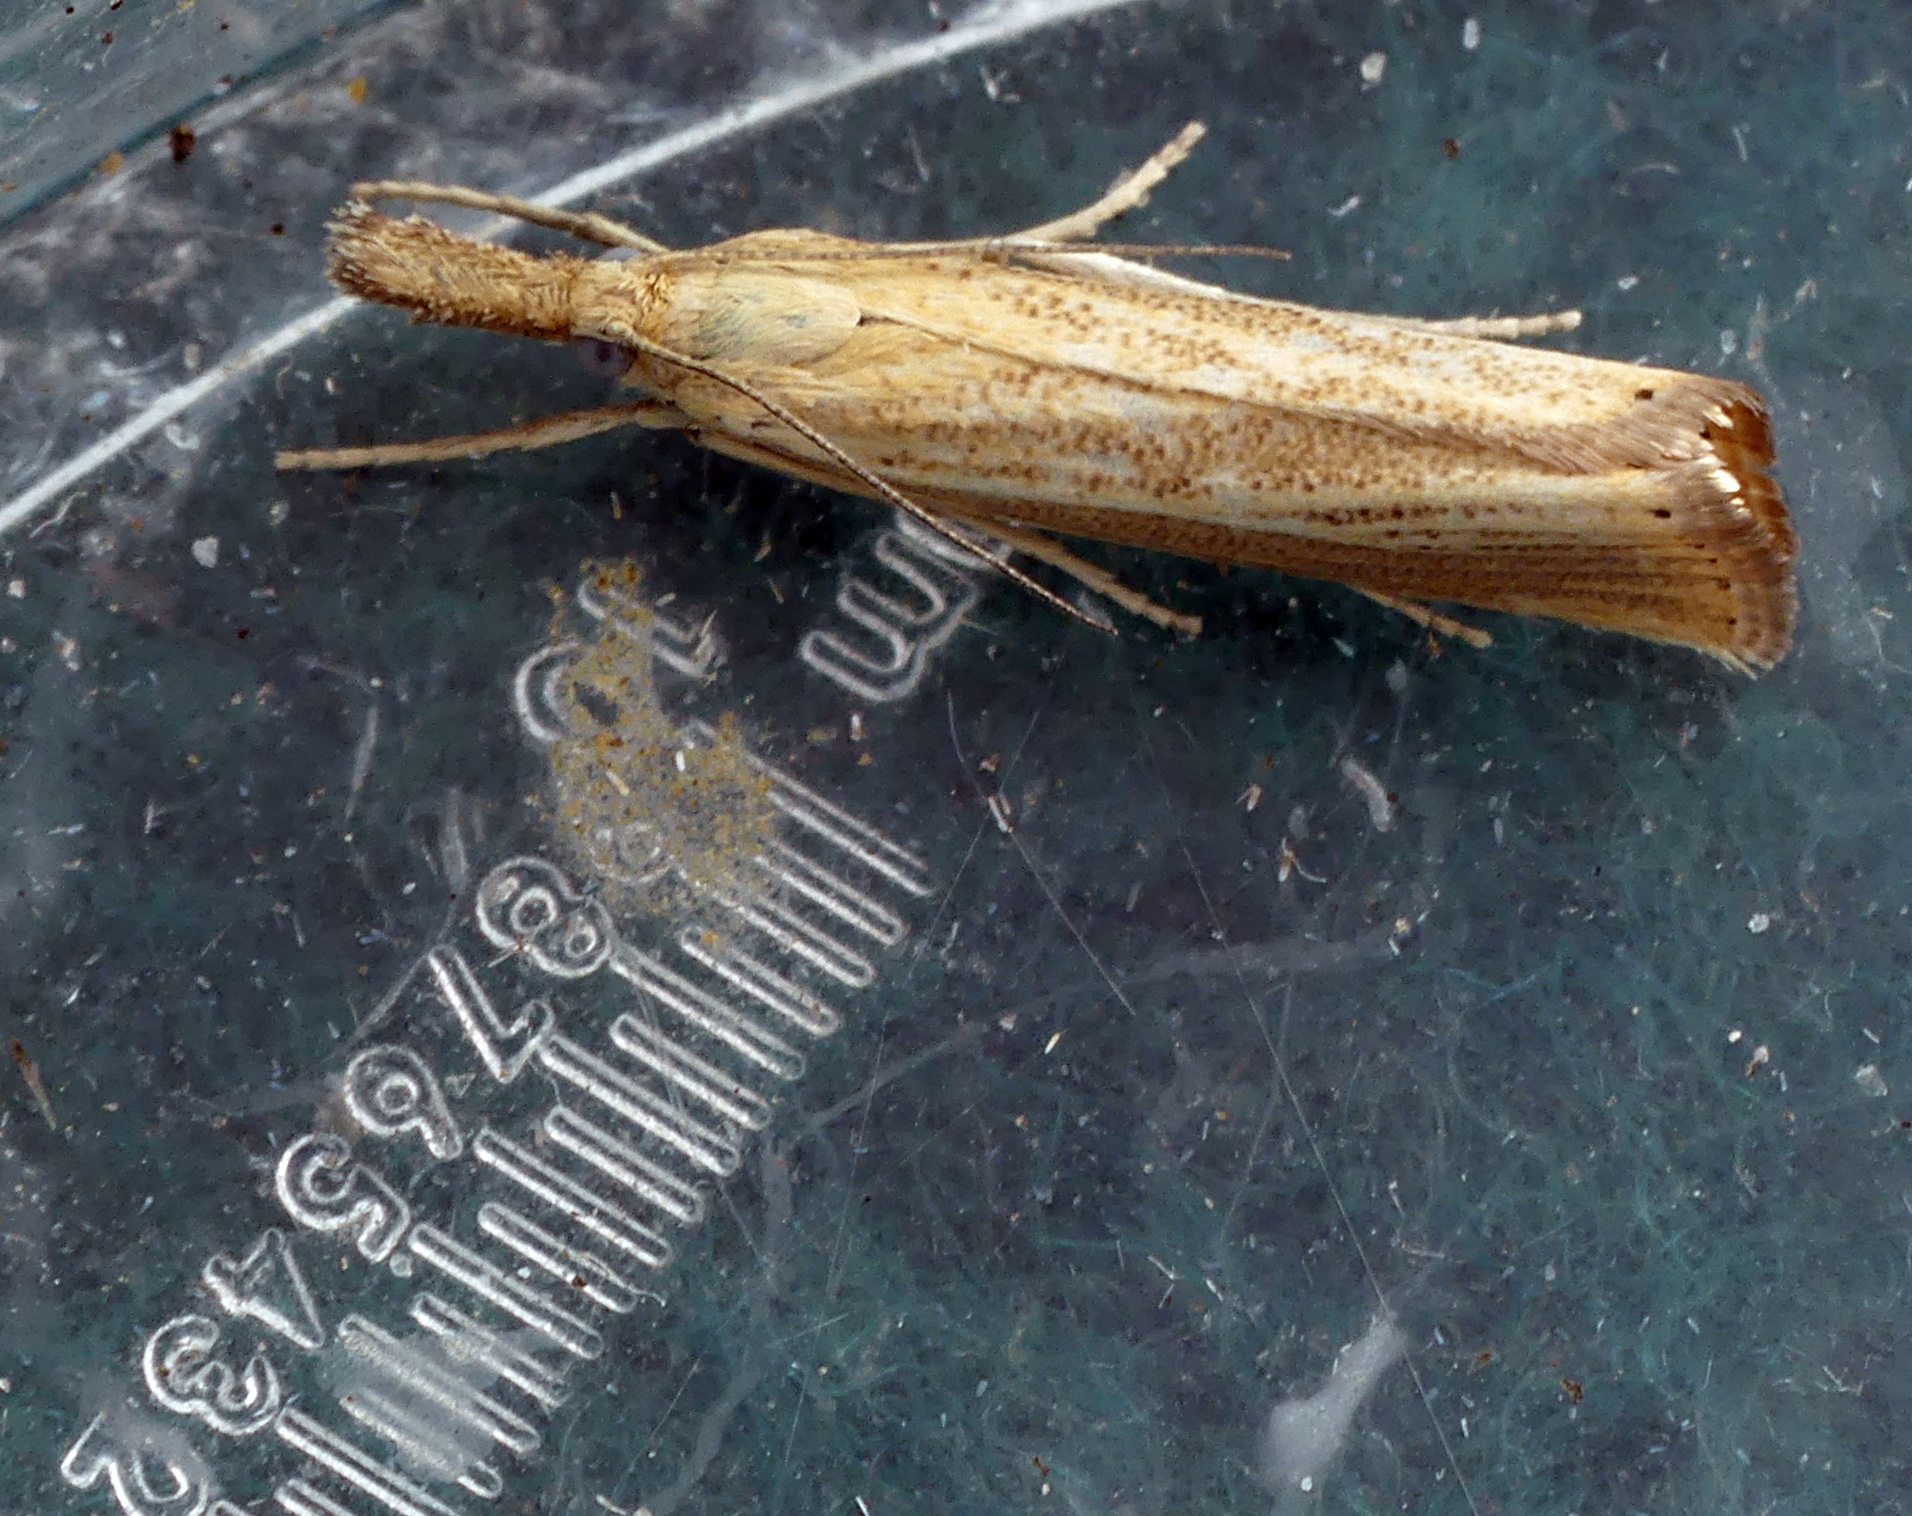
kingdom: Animalia
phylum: Arthropoda
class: Insecta
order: Lepidoptera
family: Crambidae
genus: Agriphila
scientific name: Agriphila straminella
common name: Straw grass-veneer
